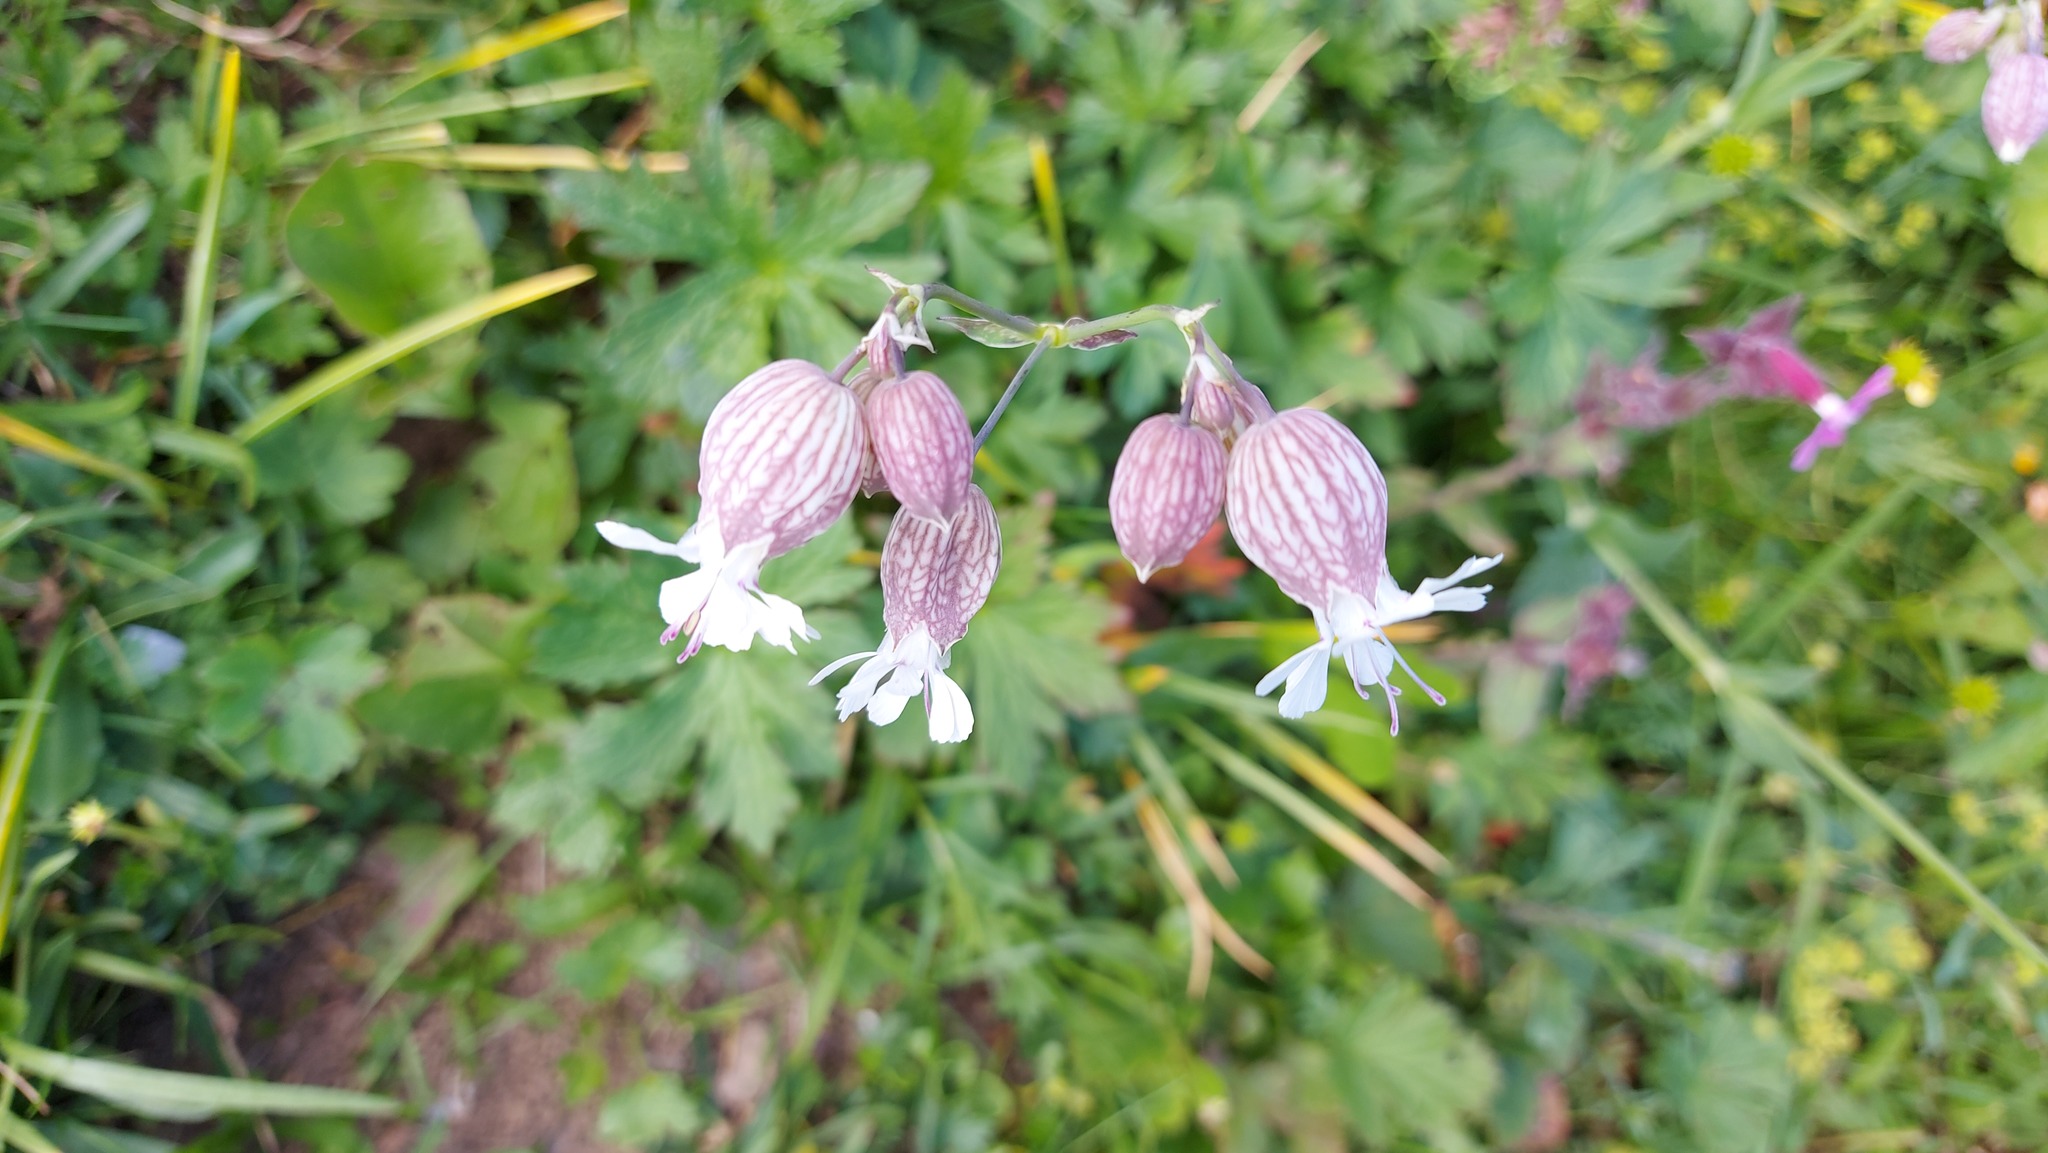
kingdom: Plantae
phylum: Tracheophyta
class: Magnoliopsida
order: Caryophyllales
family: Caryophyllaceae
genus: Silene
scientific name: Silene vulgaris
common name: Bladder campion
